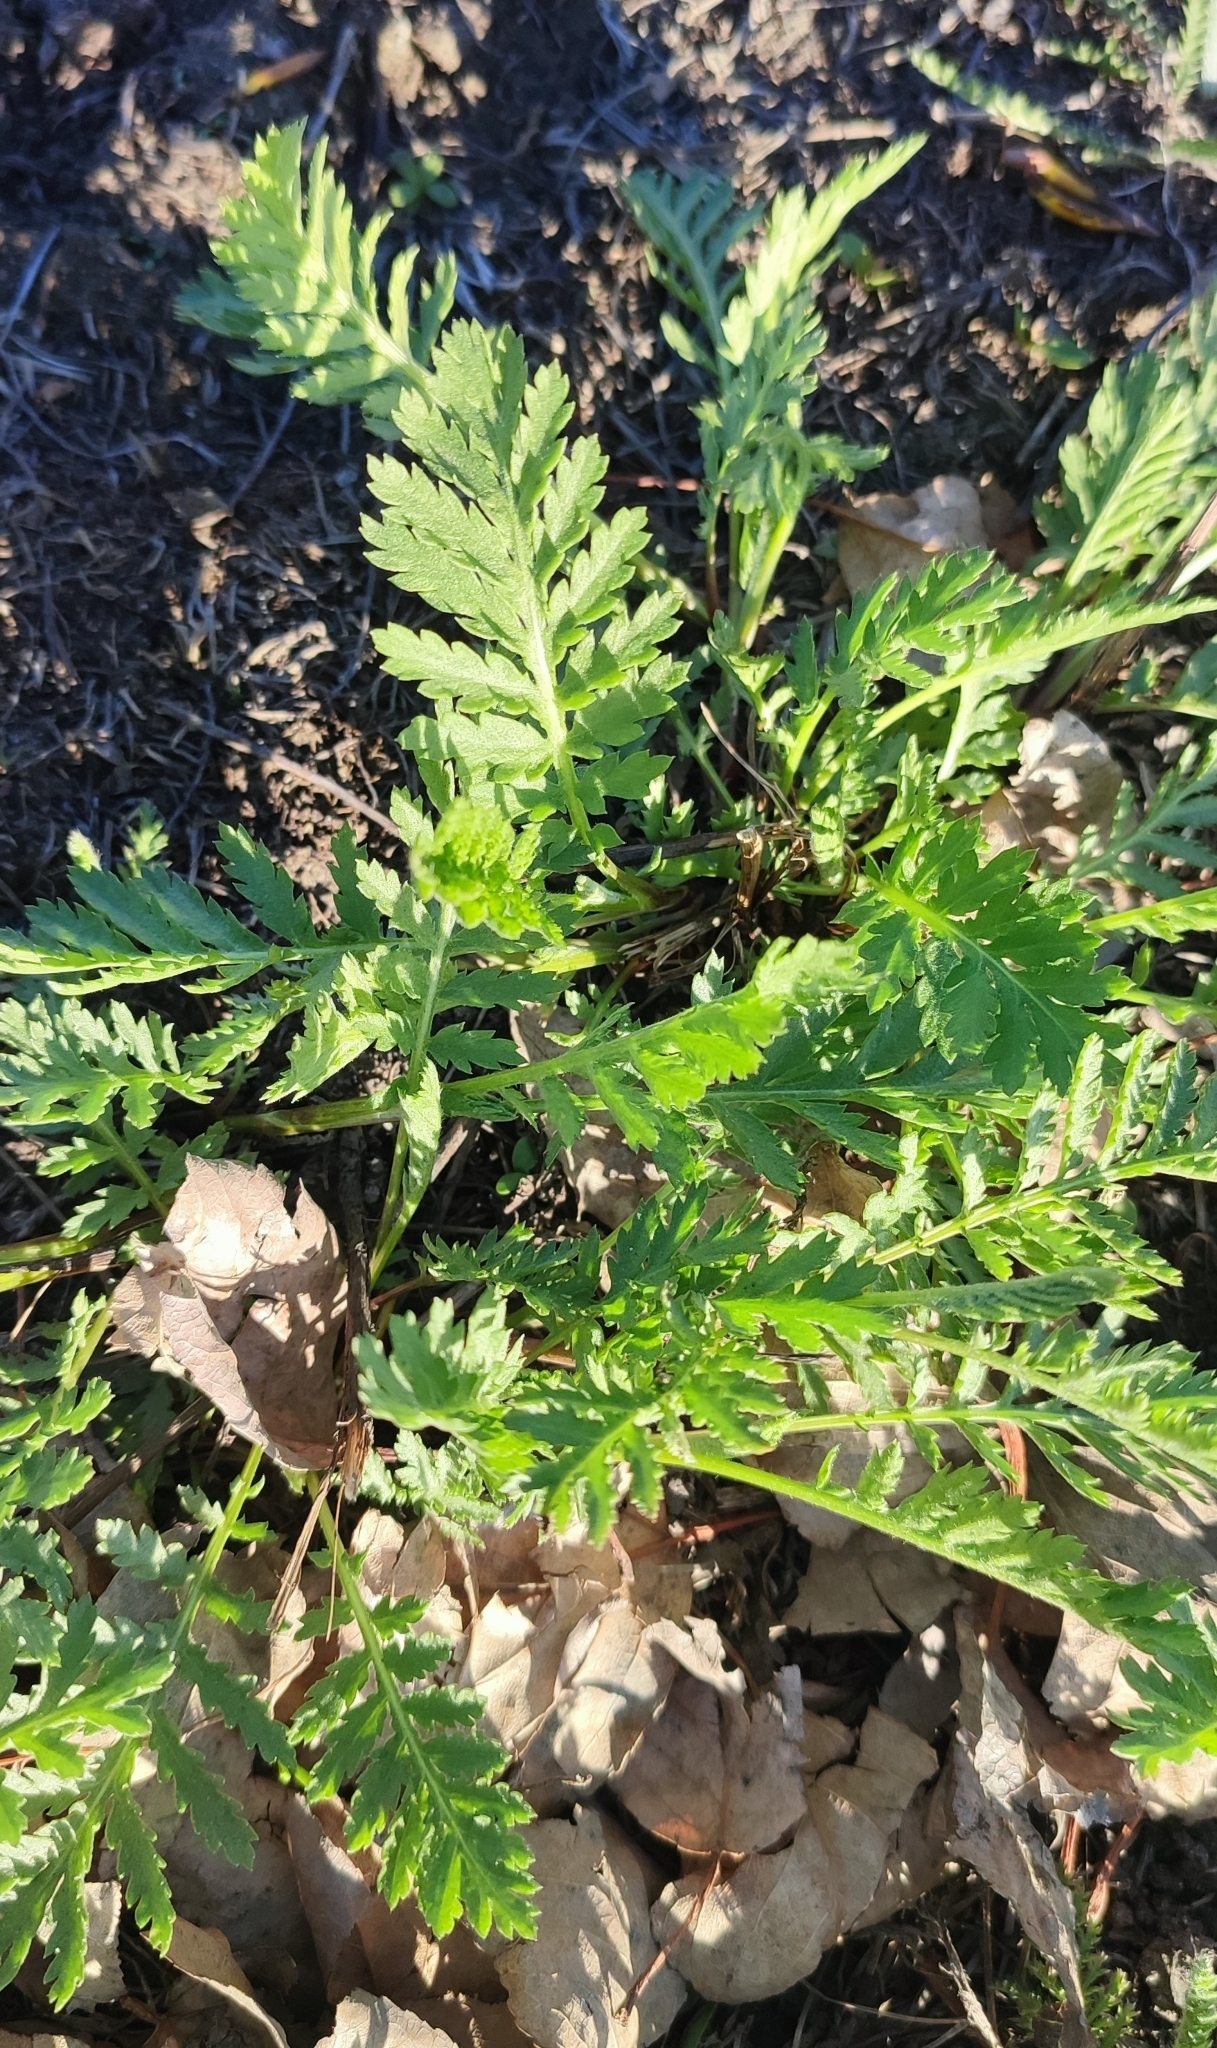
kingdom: Plantae
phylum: Tracheophyta
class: Magnoliopsida
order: Asterales
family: Asteraceae
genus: Tanacetum
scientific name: Tanacetum vulgare
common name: Common tansy
